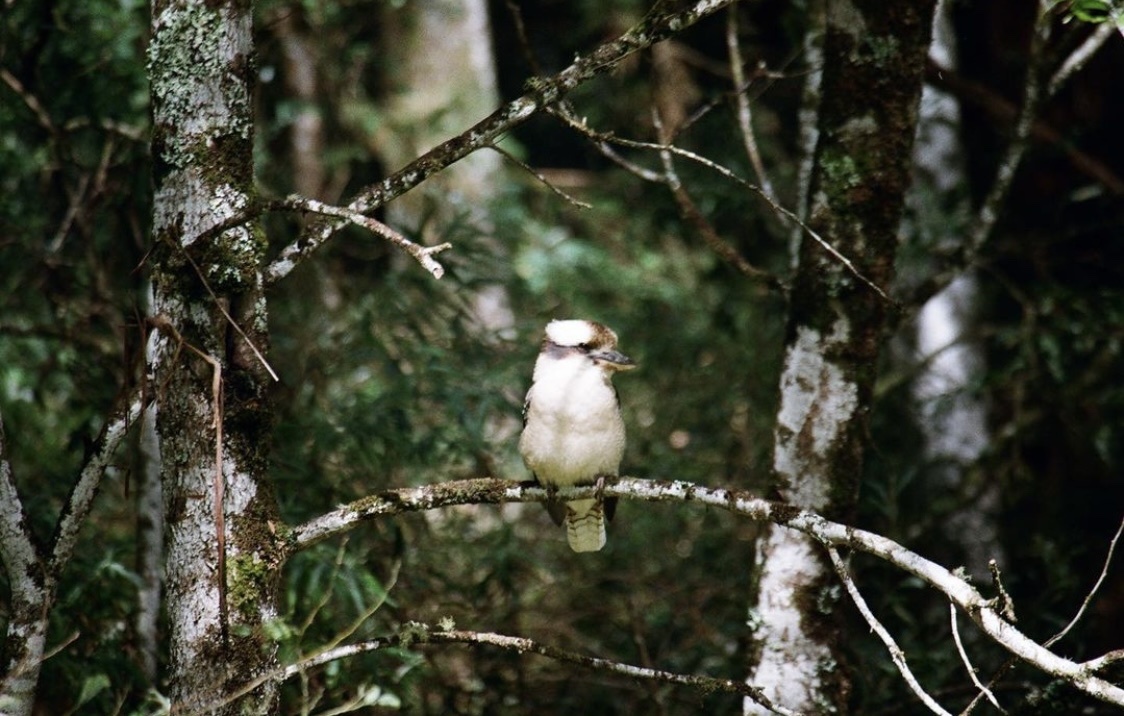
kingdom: Animalia
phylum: Chordata
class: Aves
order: Coraciiformes
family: Alcedinidae
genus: Dacelo
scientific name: Dacelo novaeguineae
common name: Laughing kookaburra
